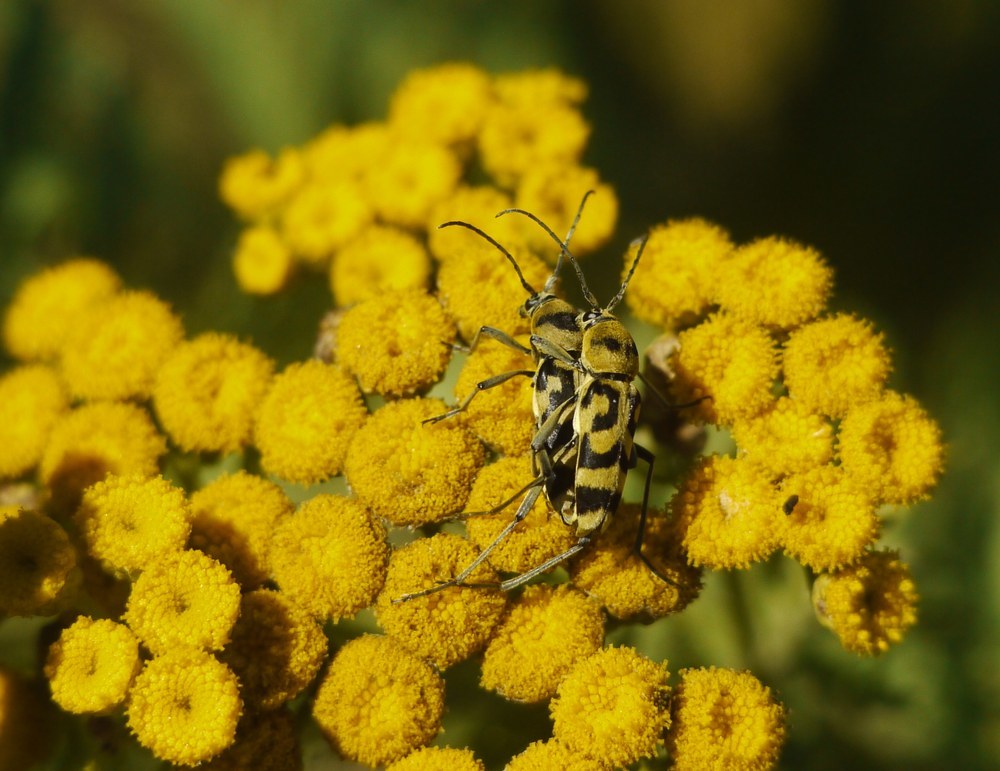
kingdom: Animalia
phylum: Arthropoda
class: Insecta
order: Coleoptera
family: Cerambycidae
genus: Chlorophorus
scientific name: Chlorophorus varius
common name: Grape wood borer
